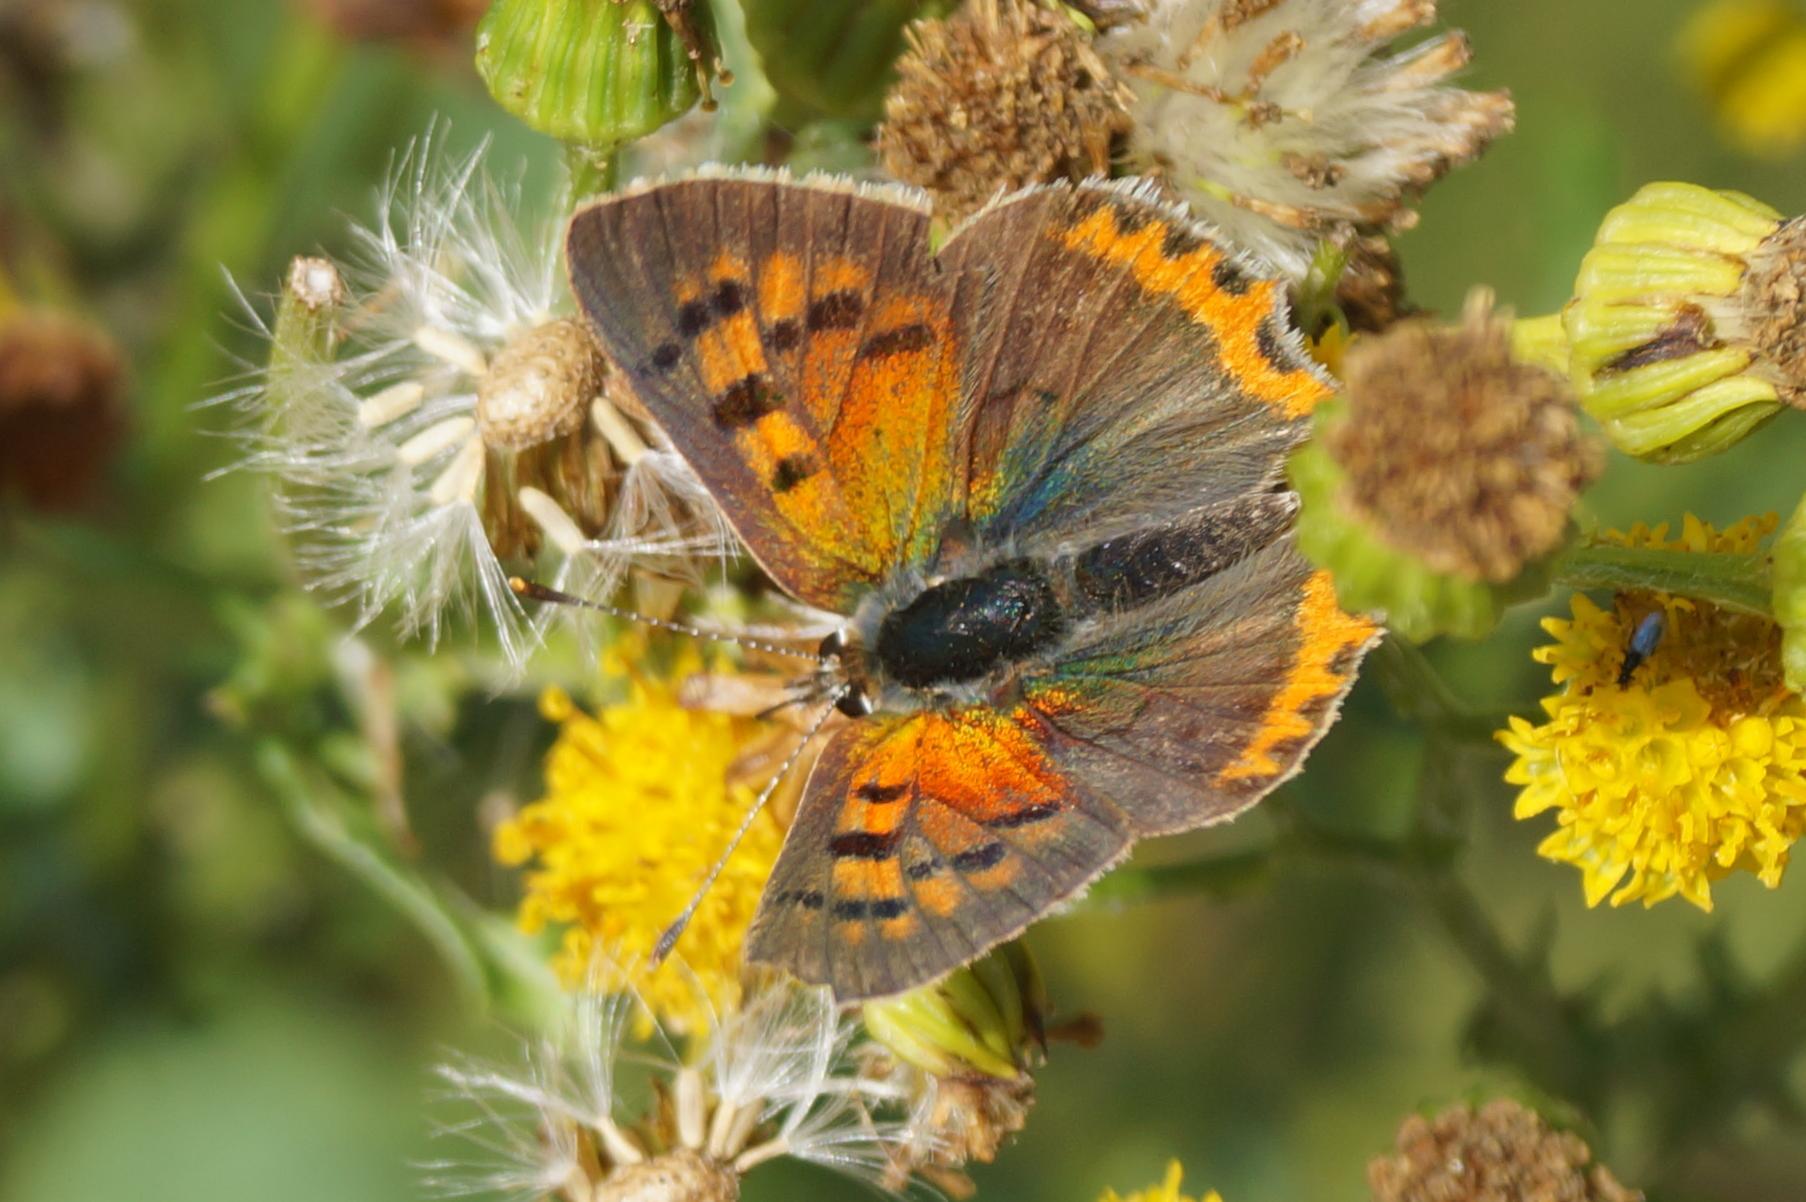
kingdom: Animalia
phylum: Arthropoda
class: Insecta
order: Lepidoptera
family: Lycaenidae
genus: Lycaena
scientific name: Lycaena phlaeas
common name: Small copper
